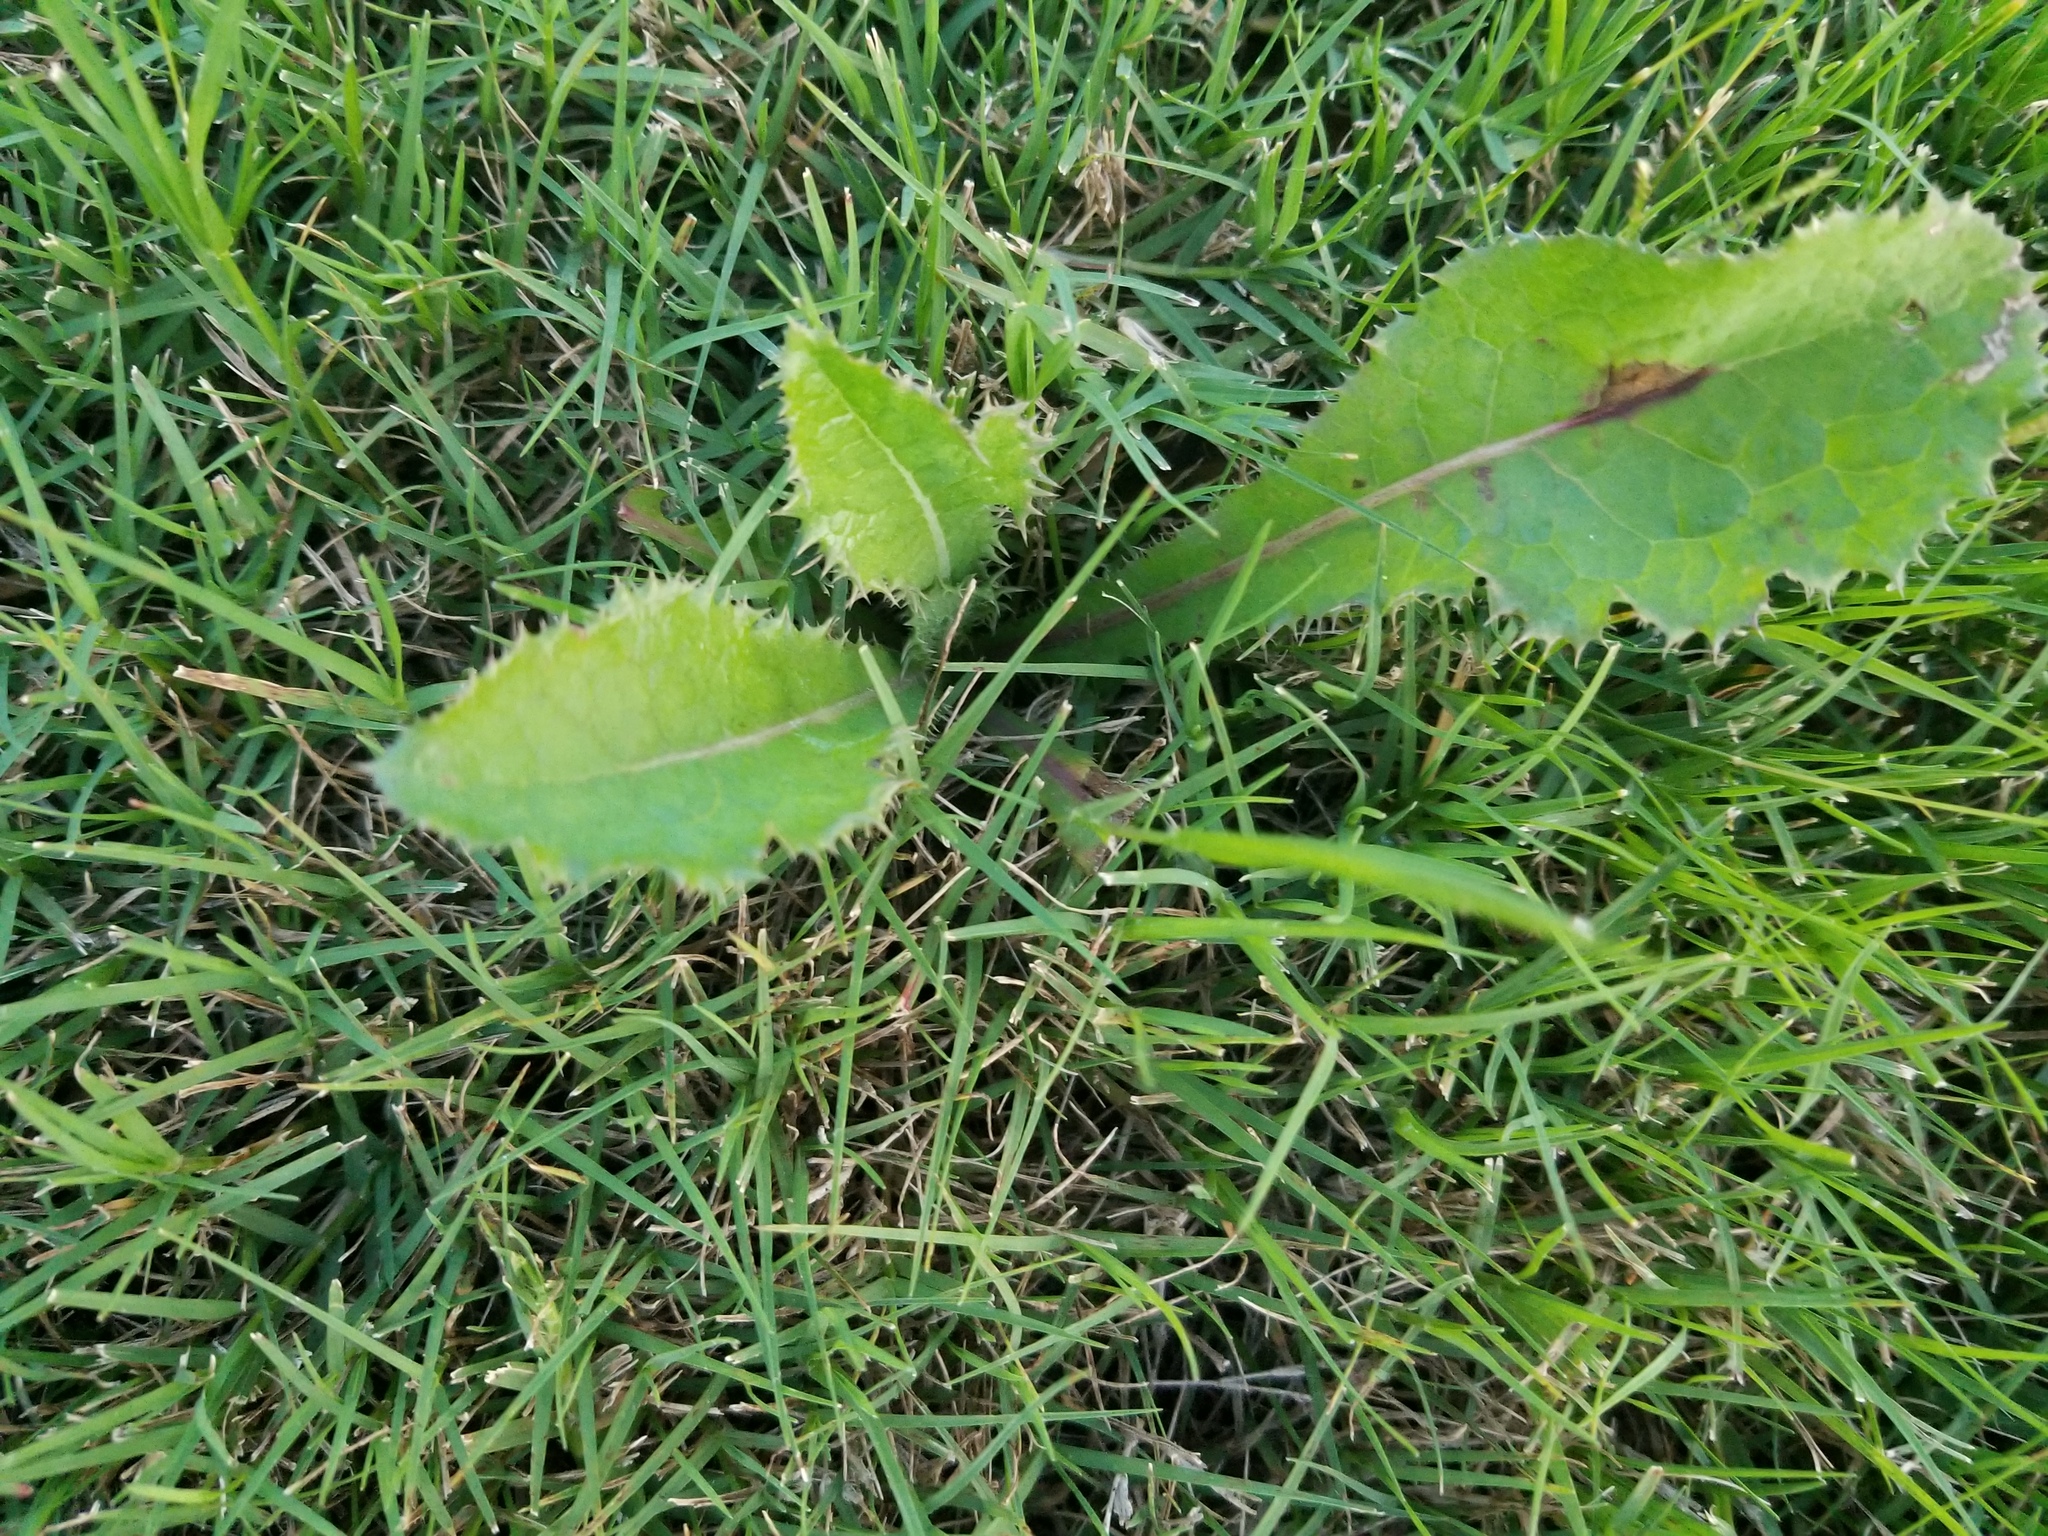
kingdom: Plantae
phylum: Tracheophyta
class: Magnoliopsida
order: Asterales
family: Asteraceae
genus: Sonchus
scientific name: Sonchus asper
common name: Prickly sow-thistle
